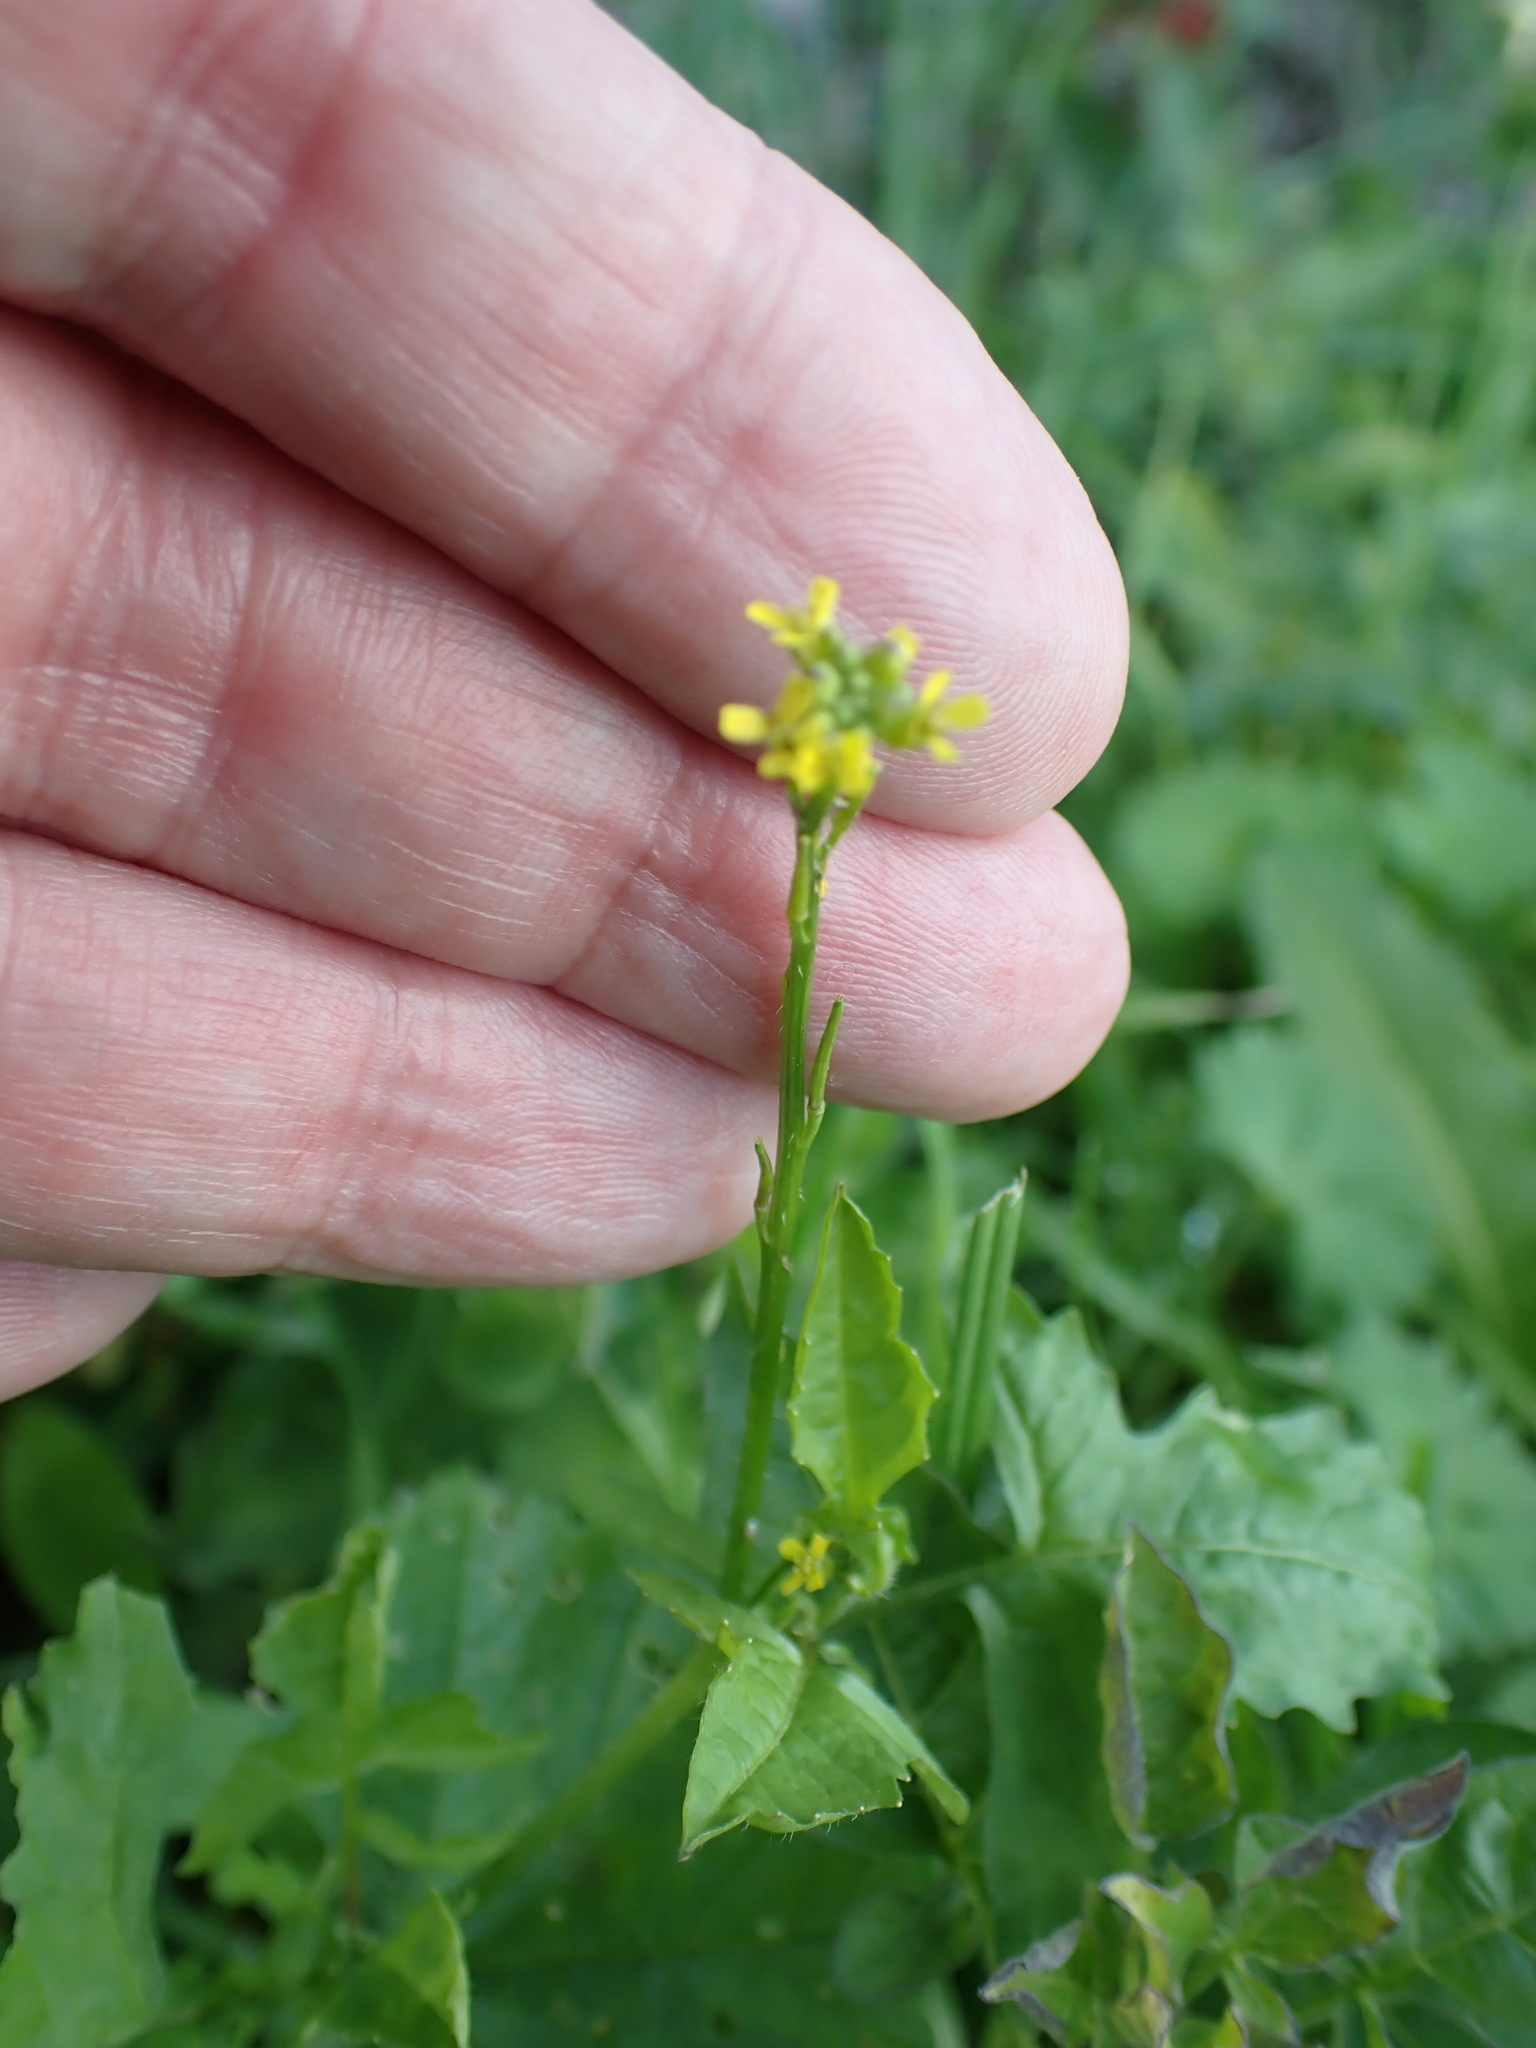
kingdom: Plantae
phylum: Tracheophyta
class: Magnoliopsida
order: Brassicales
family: Brassicaceae
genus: Sisymbrium
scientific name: Sisymbrium officinale
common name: Hedge mustard
